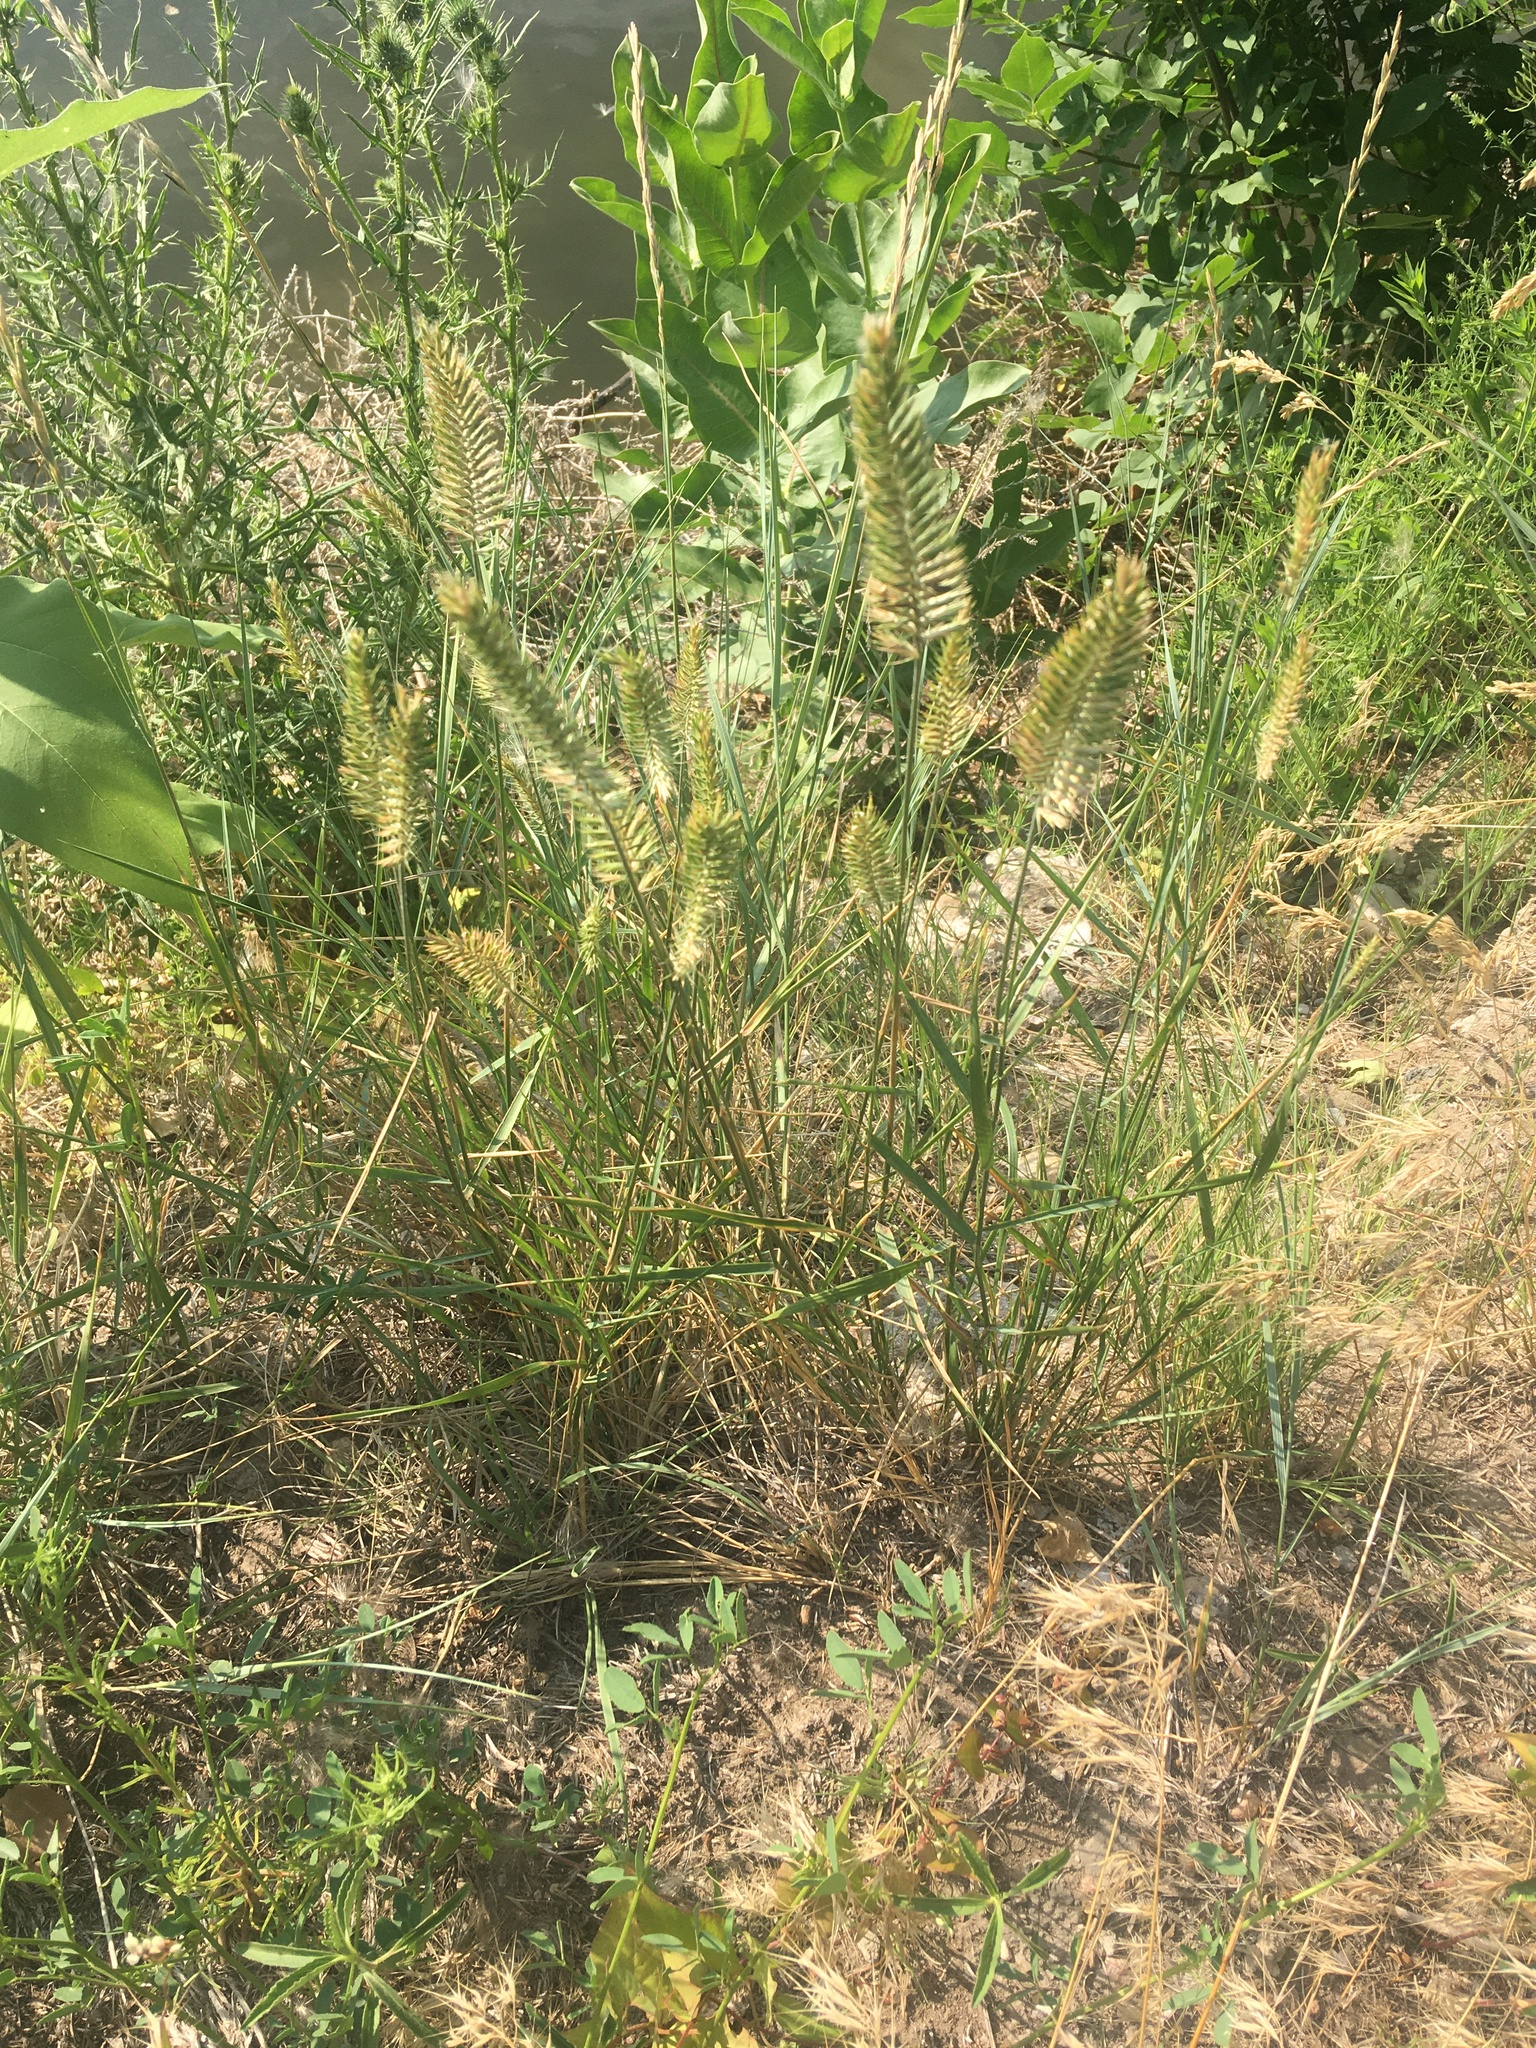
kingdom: Plantae
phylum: Tracheophyta
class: Liliopsida
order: Poales
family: Poaceae
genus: Agropyron
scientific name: Agropyron cristatum
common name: Crested wheatgrass
